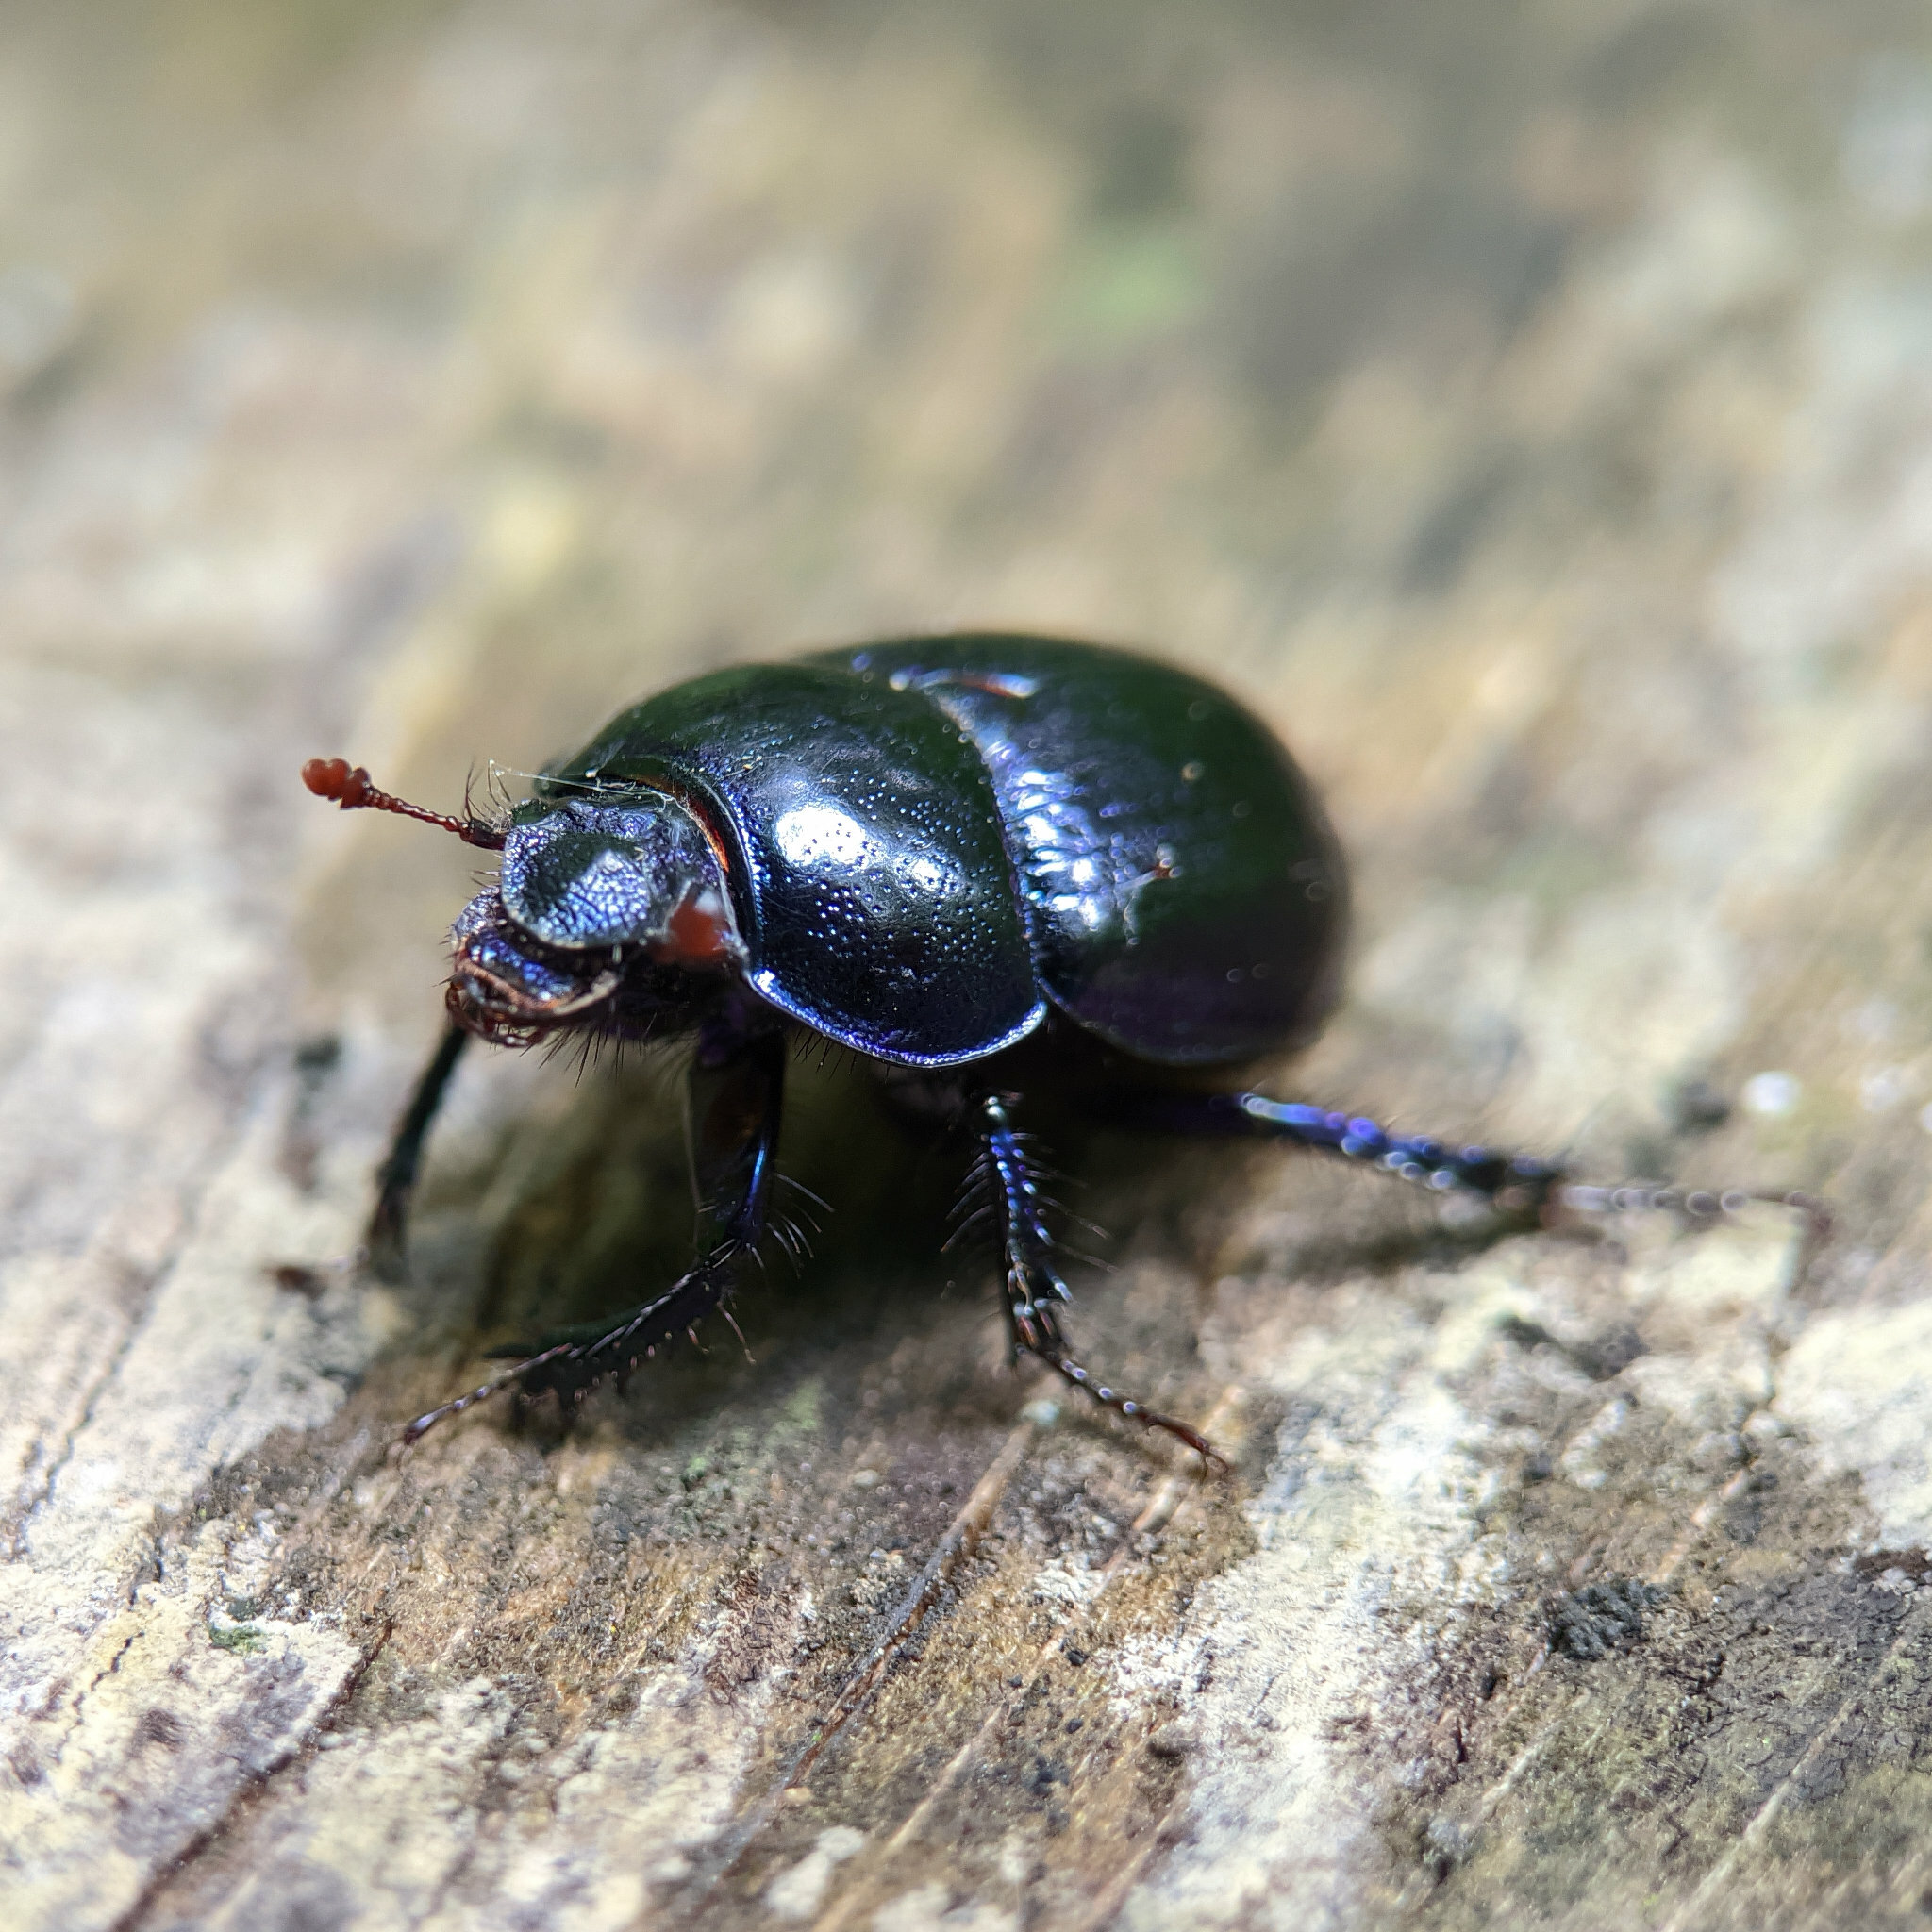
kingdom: Animalia
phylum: Arthropoda
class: Insecta
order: Coleoptera
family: Geotrupidae
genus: Anoplotrupes
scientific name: Anoplotrupes stercorosus
